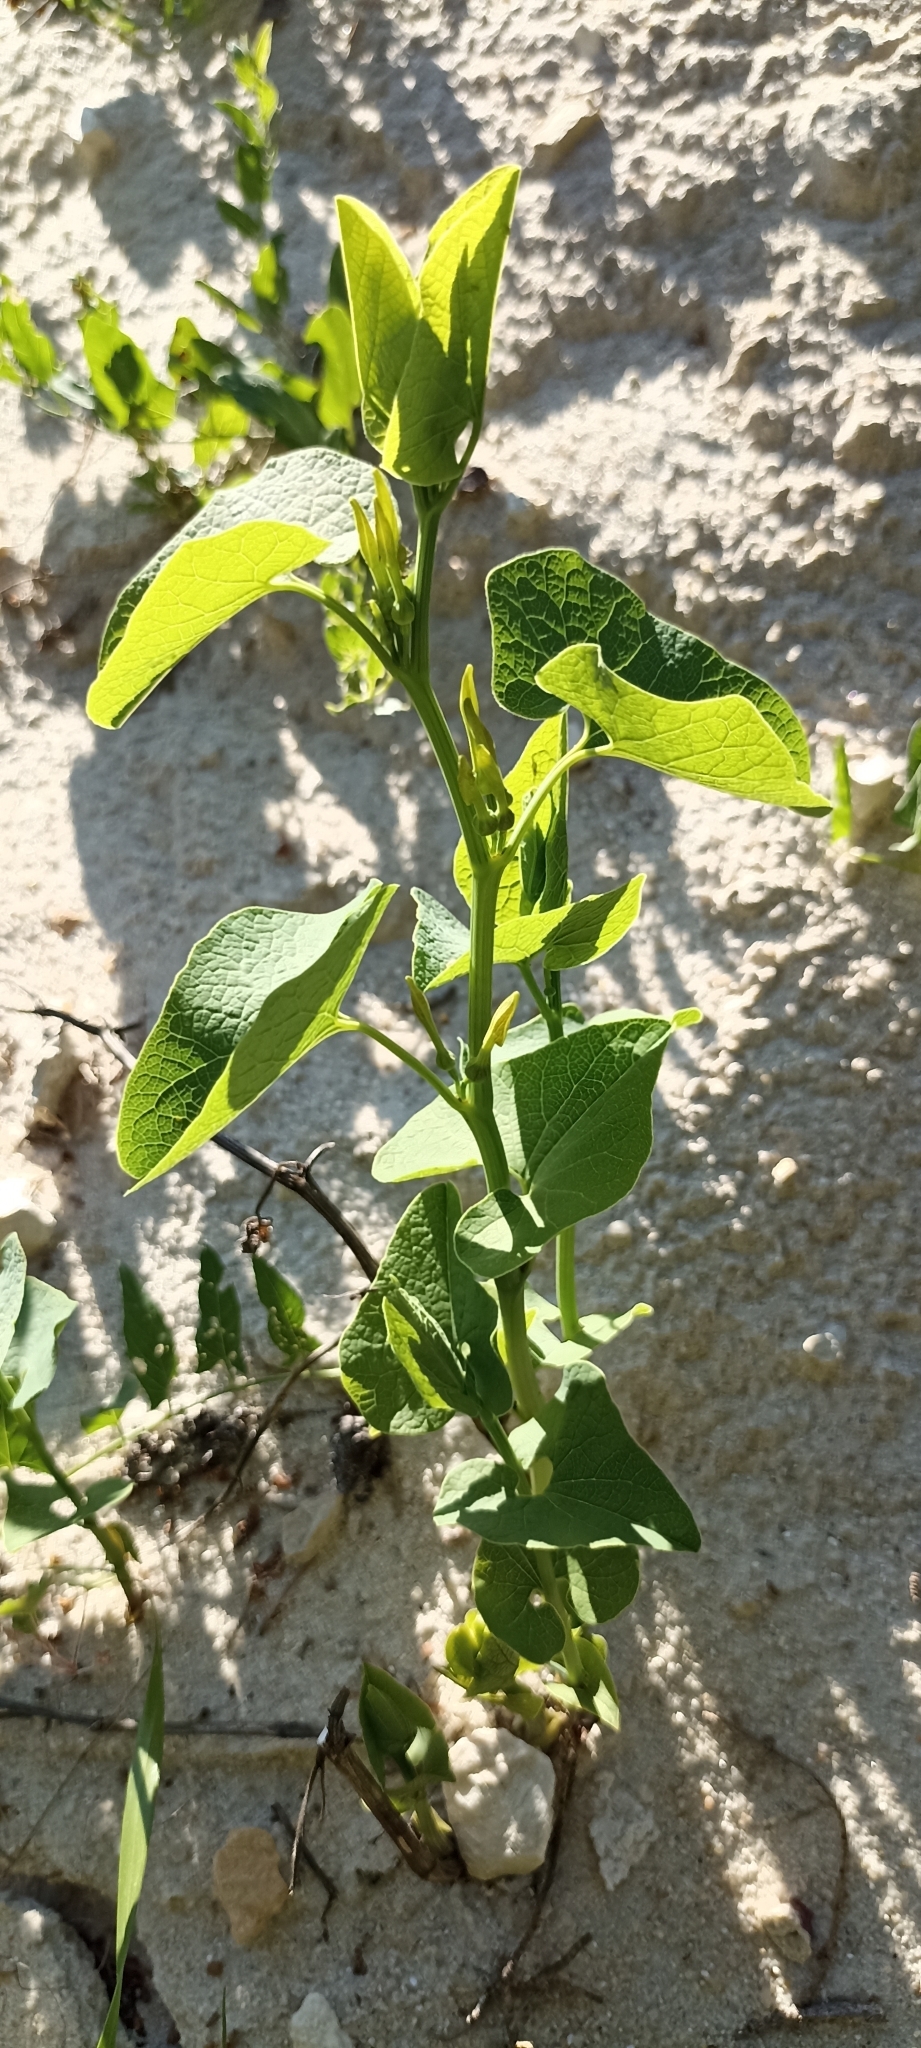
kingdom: Plantae
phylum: Tracheophyta
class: Magnoliopsida
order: Piperales
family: Aristolochiaceae
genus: Aristolochia
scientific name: Aristolochia clematitis
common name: Birthwort
